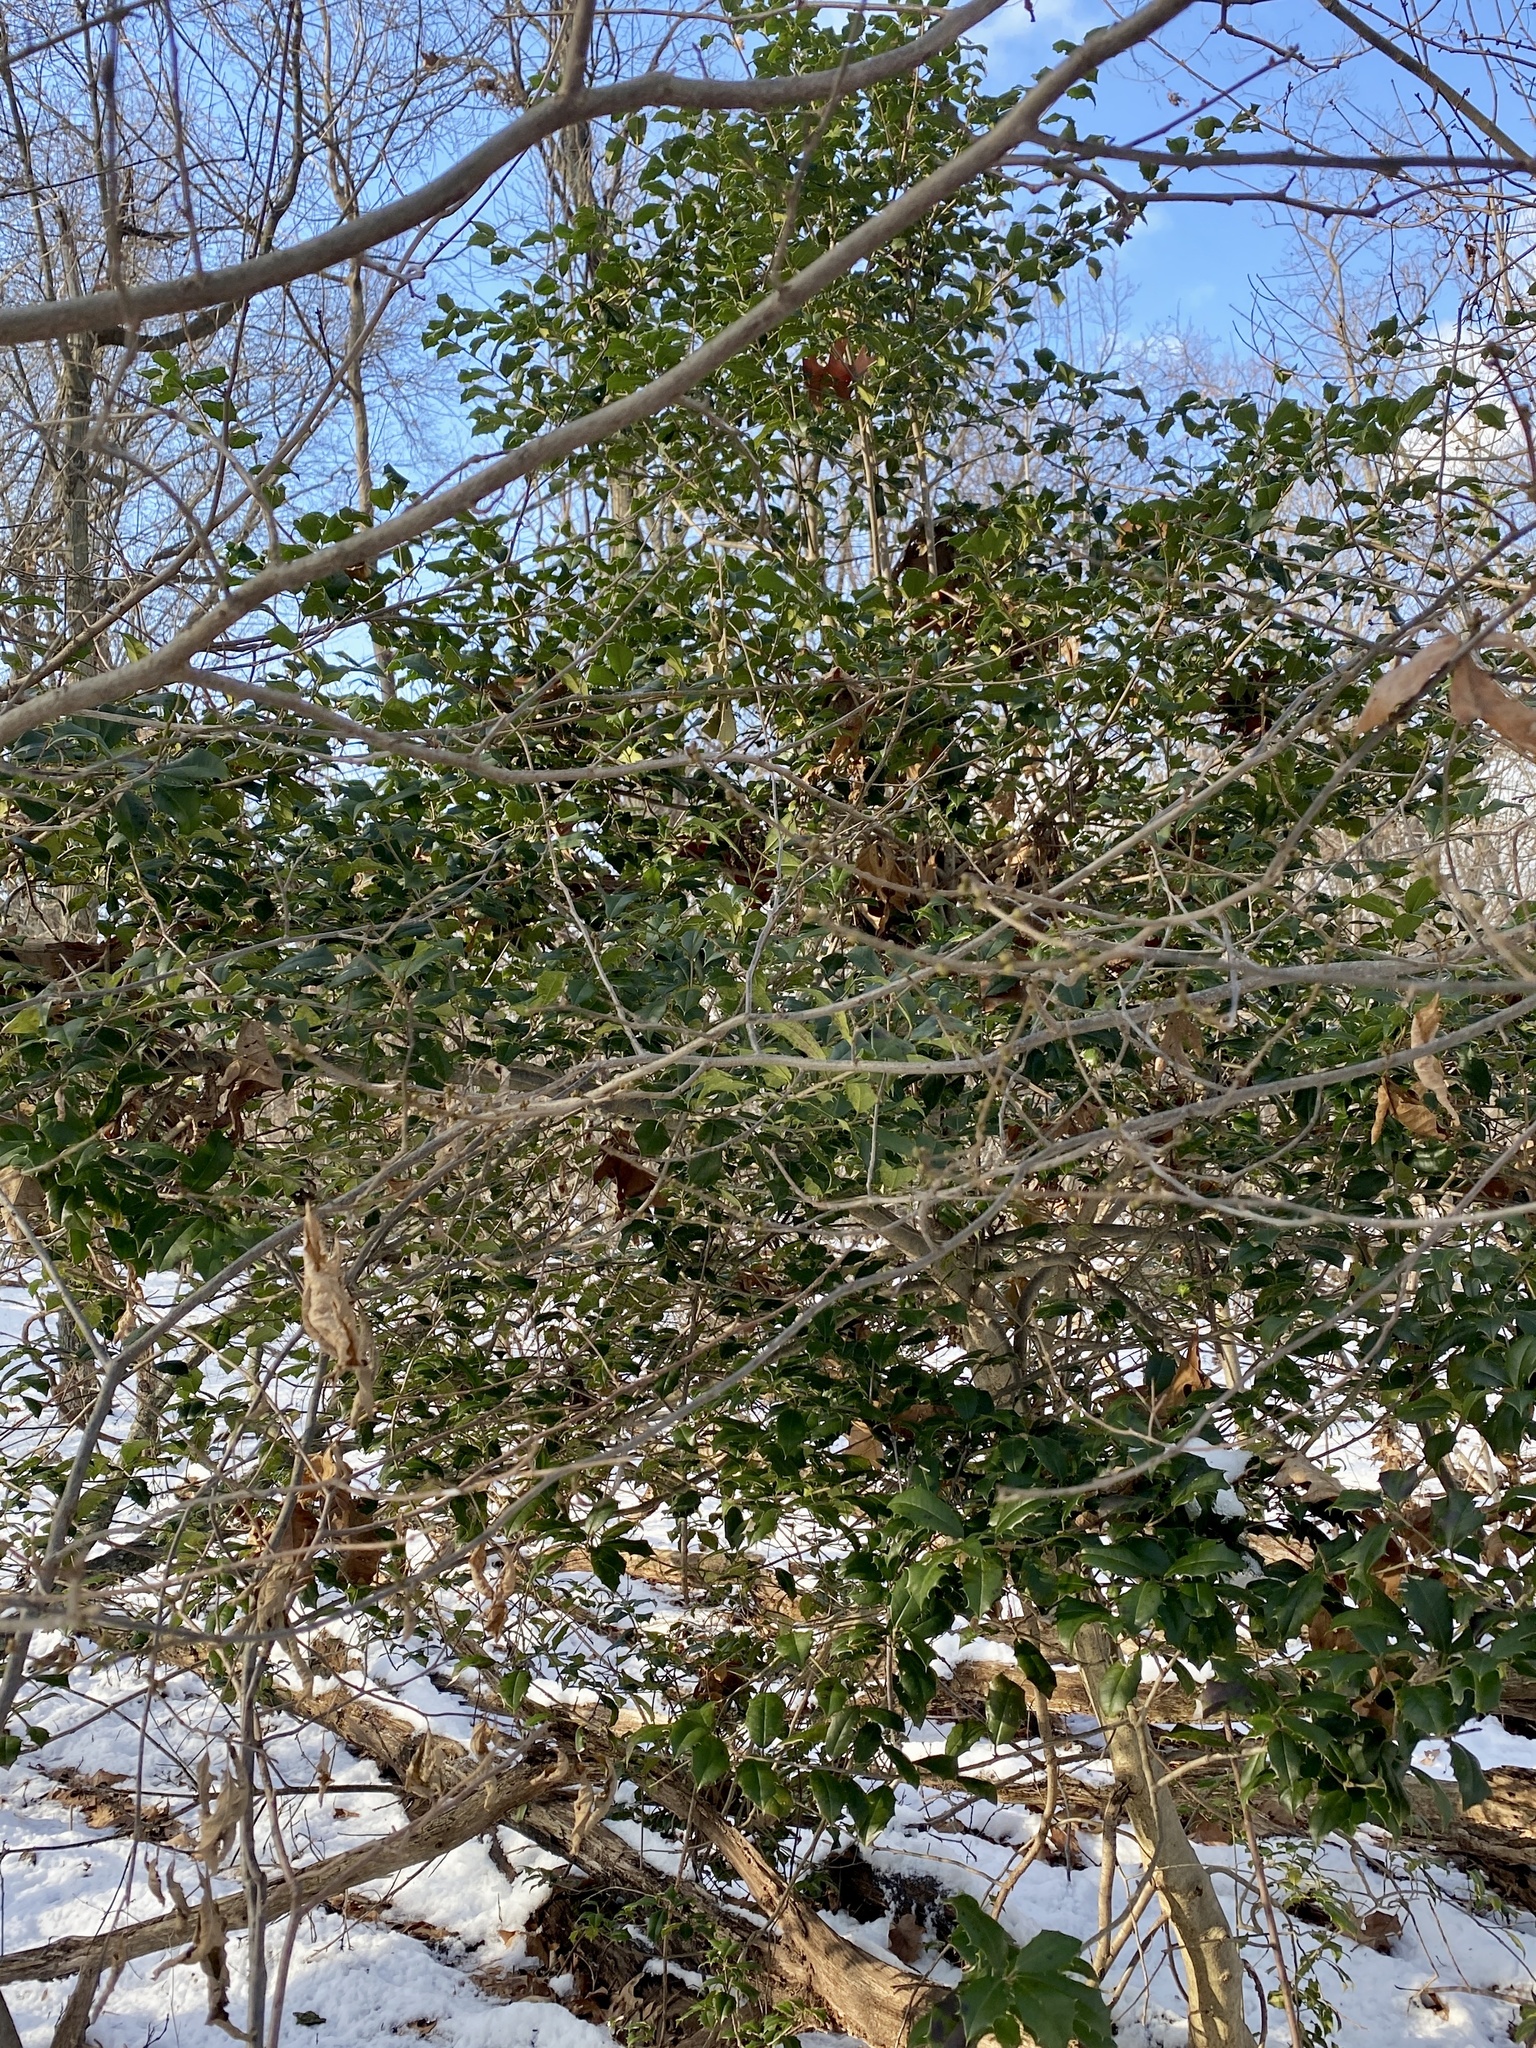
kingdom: Plantae
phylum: Tracheophyta
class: Magnoliopsida
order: Aquifoliales
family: Aquifoliaceae
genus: Ilex
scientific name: Ilex opaca
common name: American holly
